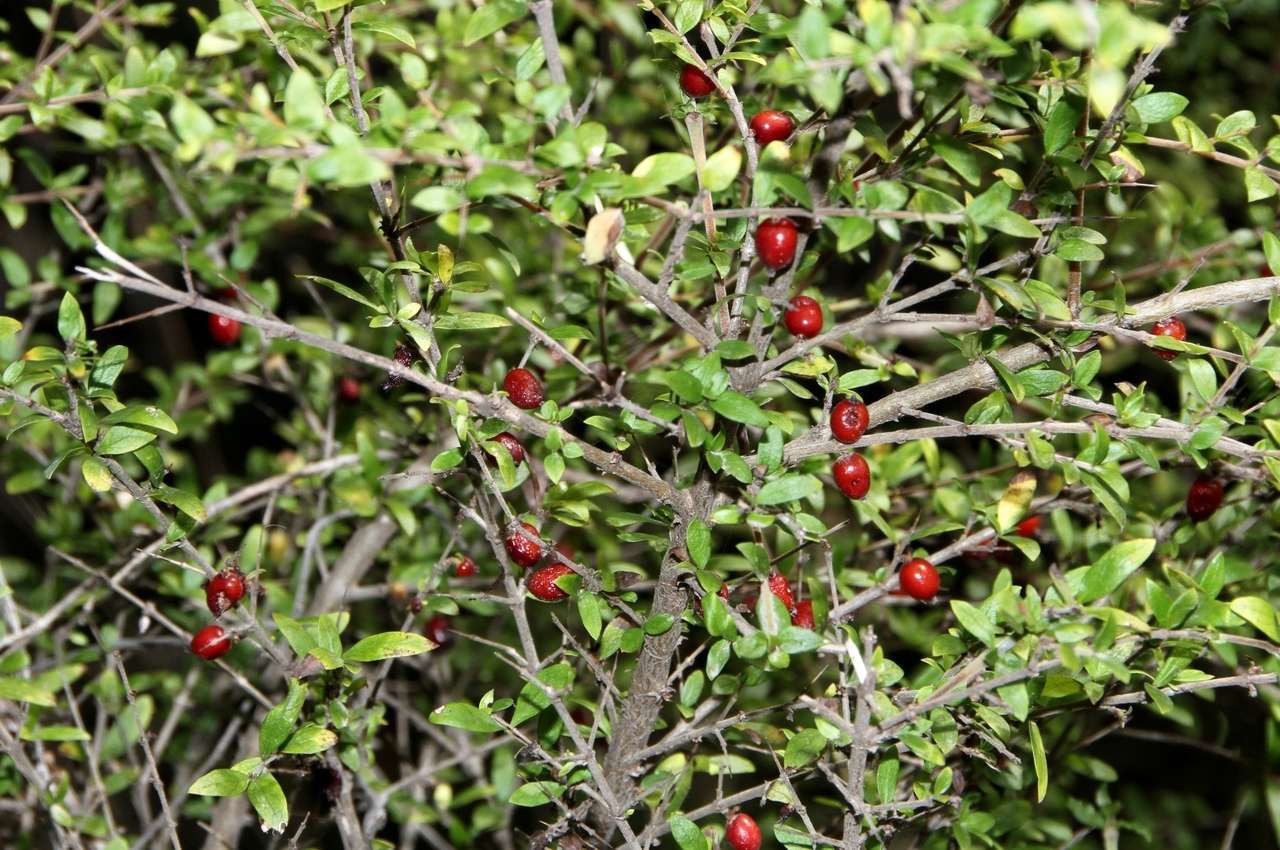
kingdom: Plantae
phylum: Tracheophyta
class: Magnoliopsida
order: Gentianales
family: Rubiaceae
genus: Coprosma
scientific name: Coprosma quadrifida
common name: Prickly currantbush
